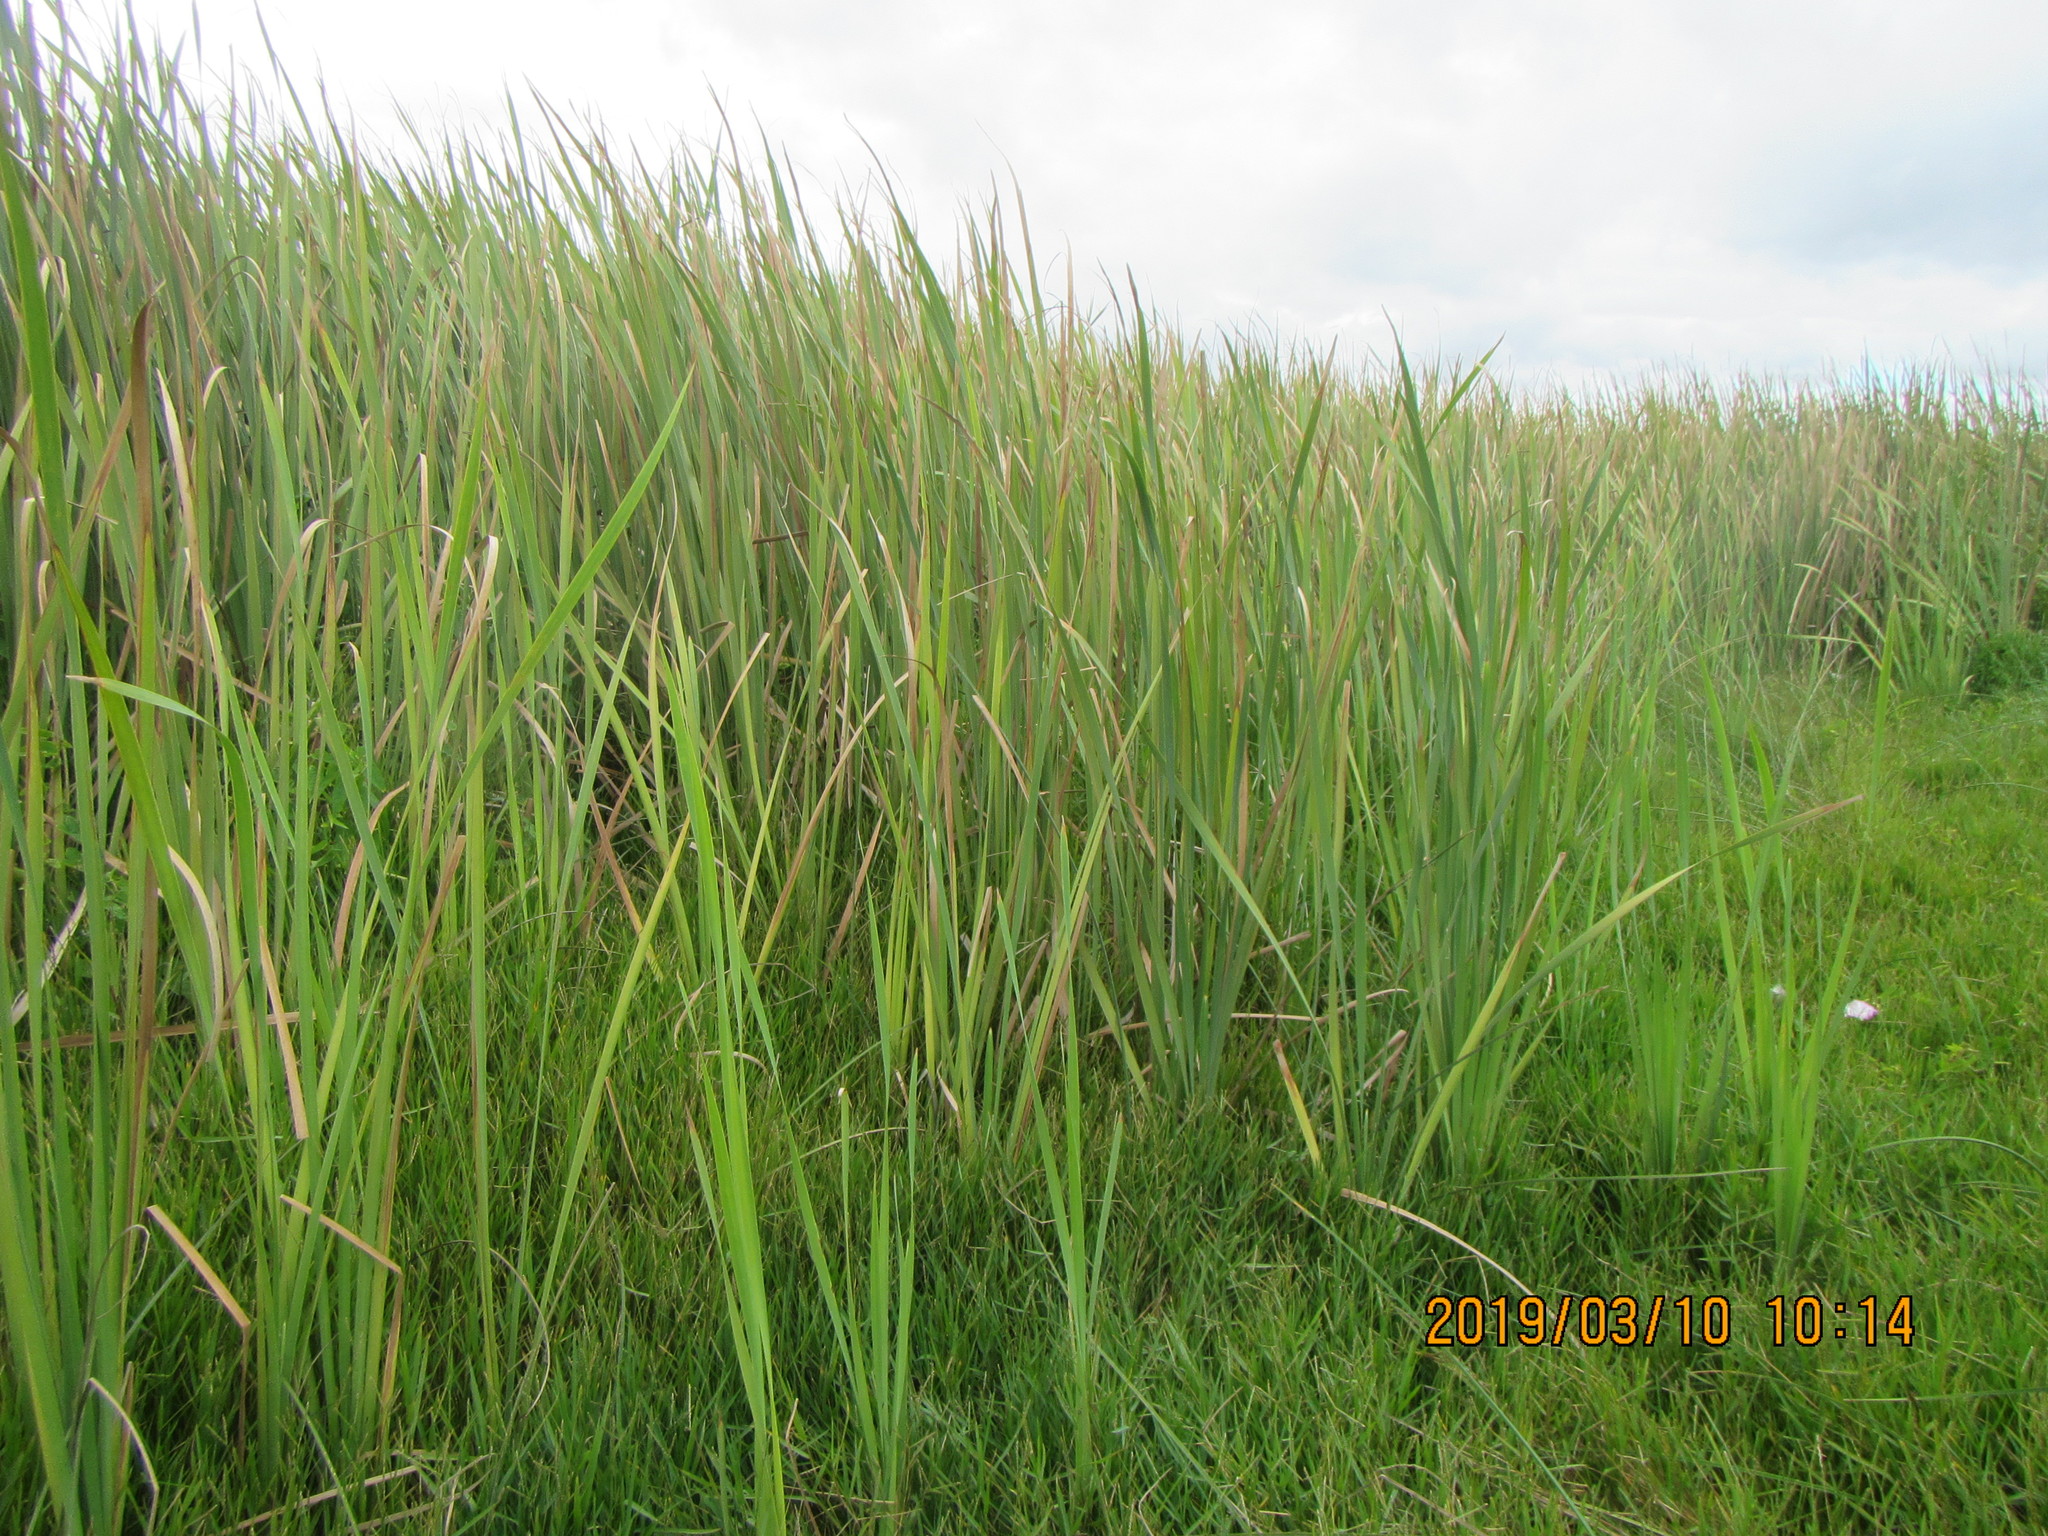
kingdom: Plantae
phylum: Tracheophyta
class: Liliopsida
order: Poales
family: Typhaceae
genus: Typha
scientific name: Typha orientalis
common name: Bullrush
